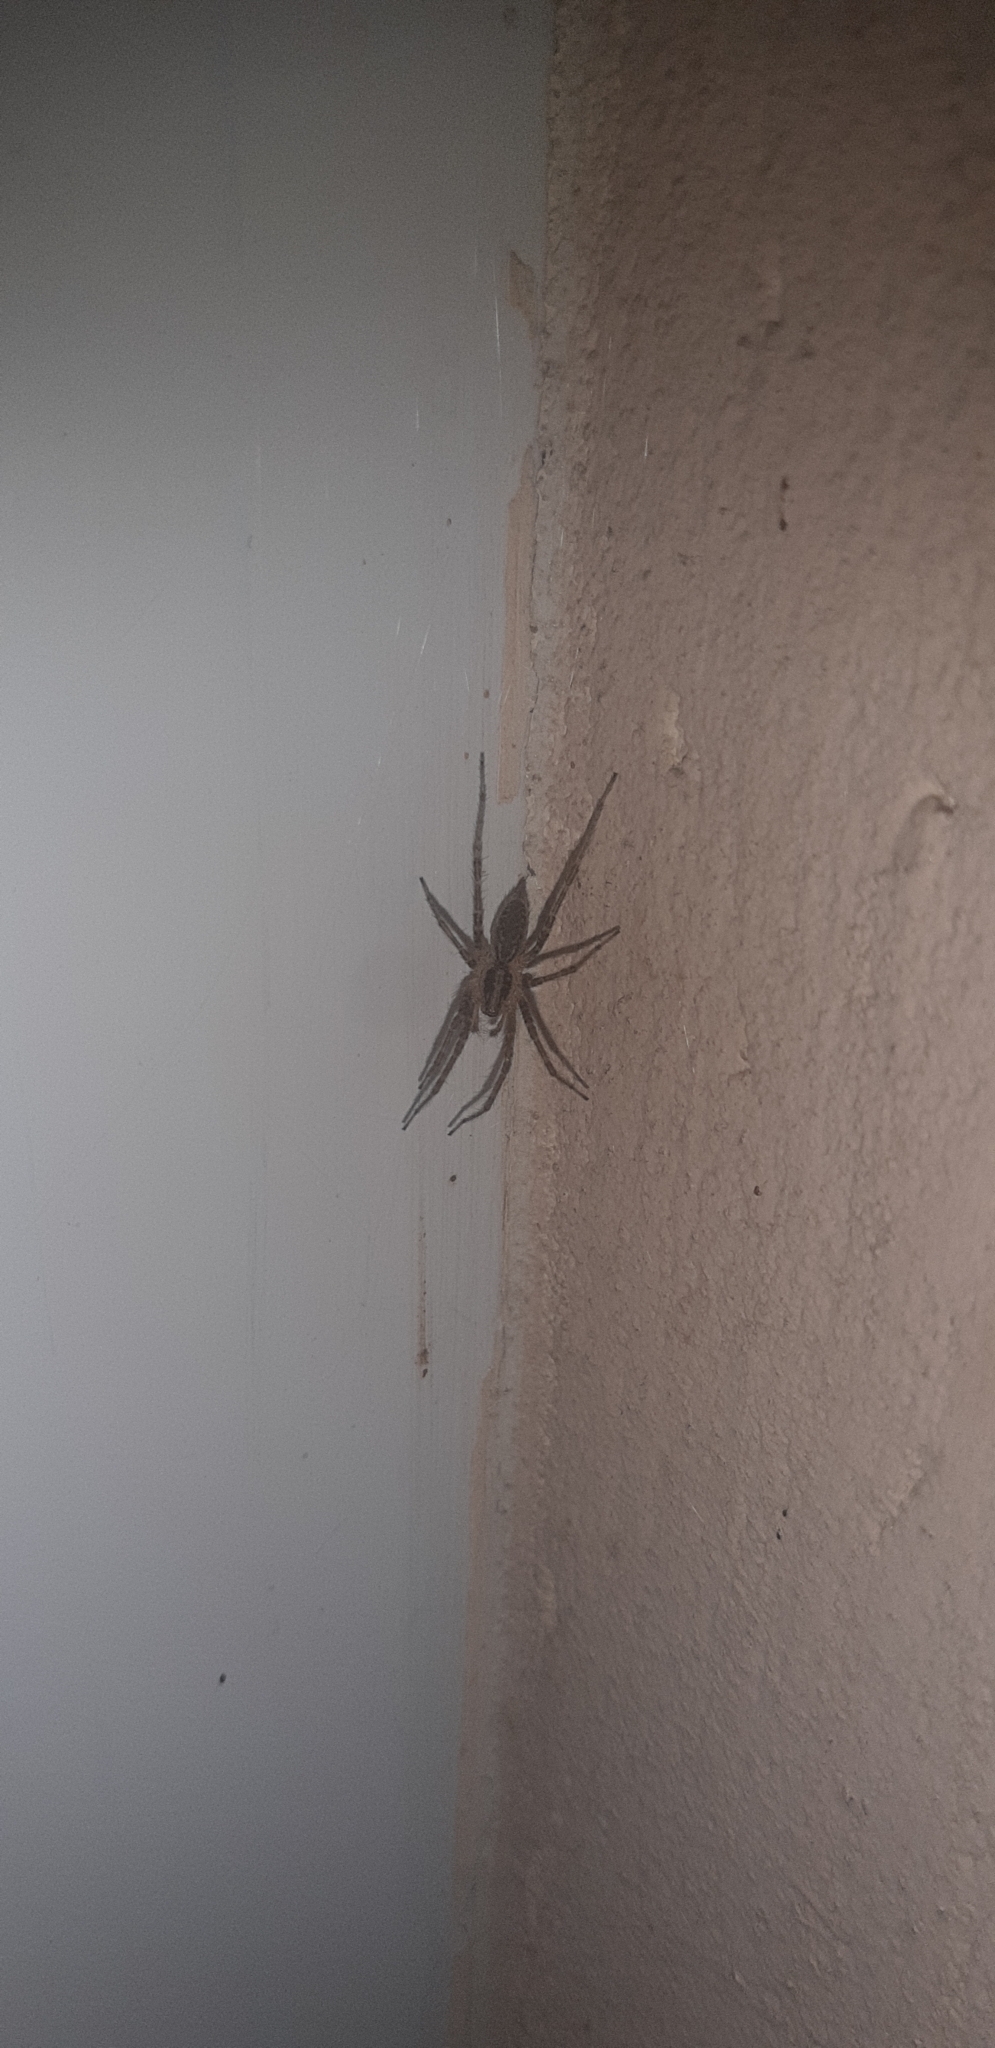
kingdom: Animalia
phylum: Arthropoda
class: Arachnida
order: Araneae
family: Agelenidae
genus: Allagelena
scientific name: Allagelena gracilens
